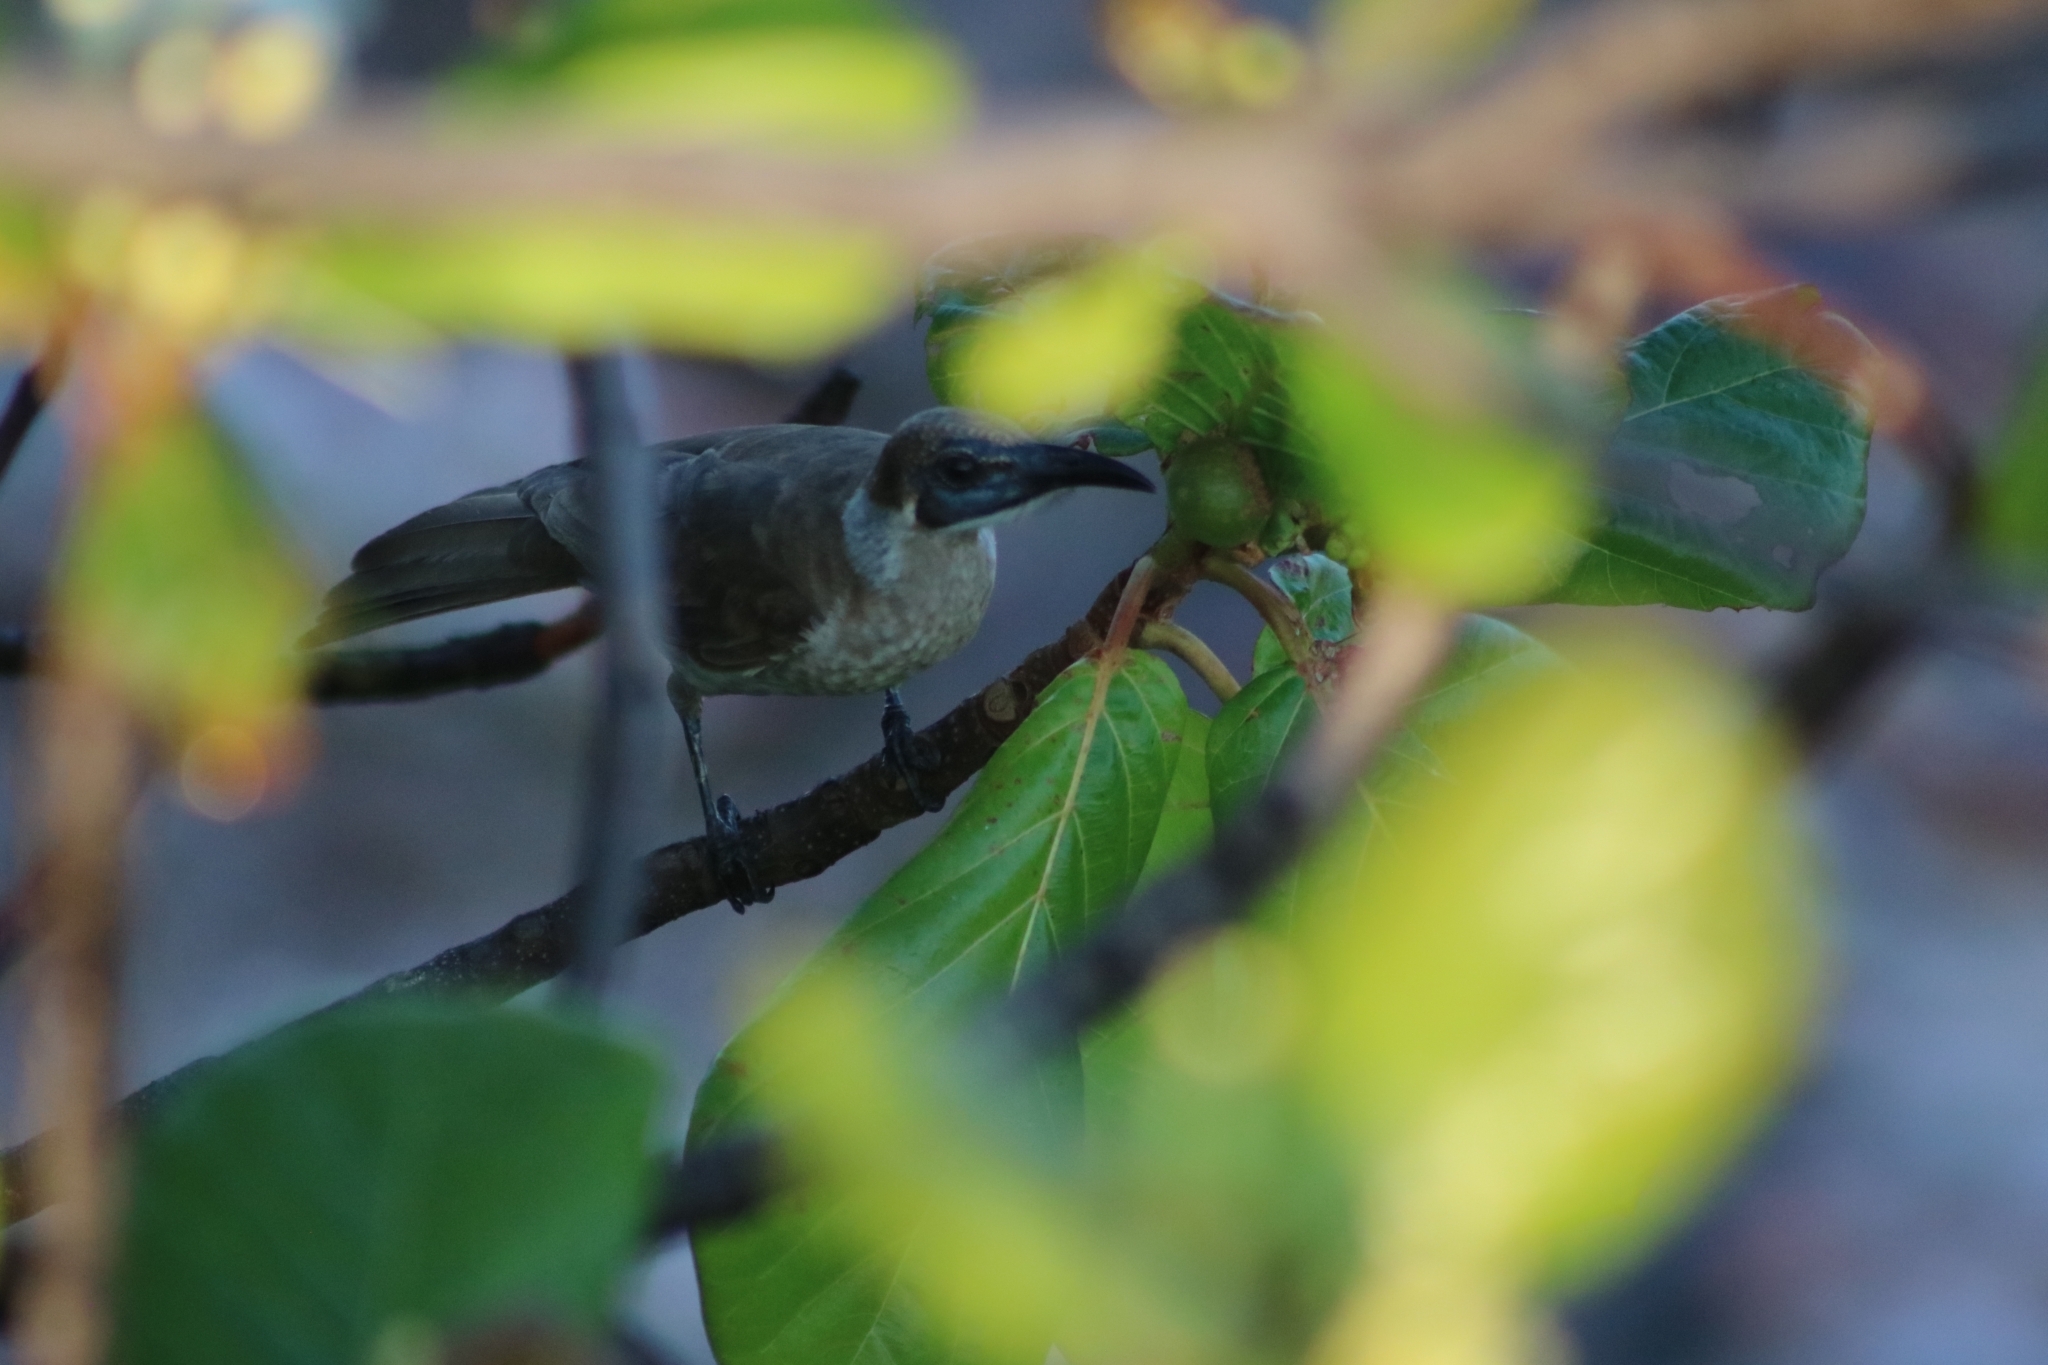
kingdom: Animalia
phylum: Chordata
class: Aves
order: Passeriformes
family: Meliphagidae
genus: Philemon
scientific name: Philemon citreogularis
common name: Little friarbird
